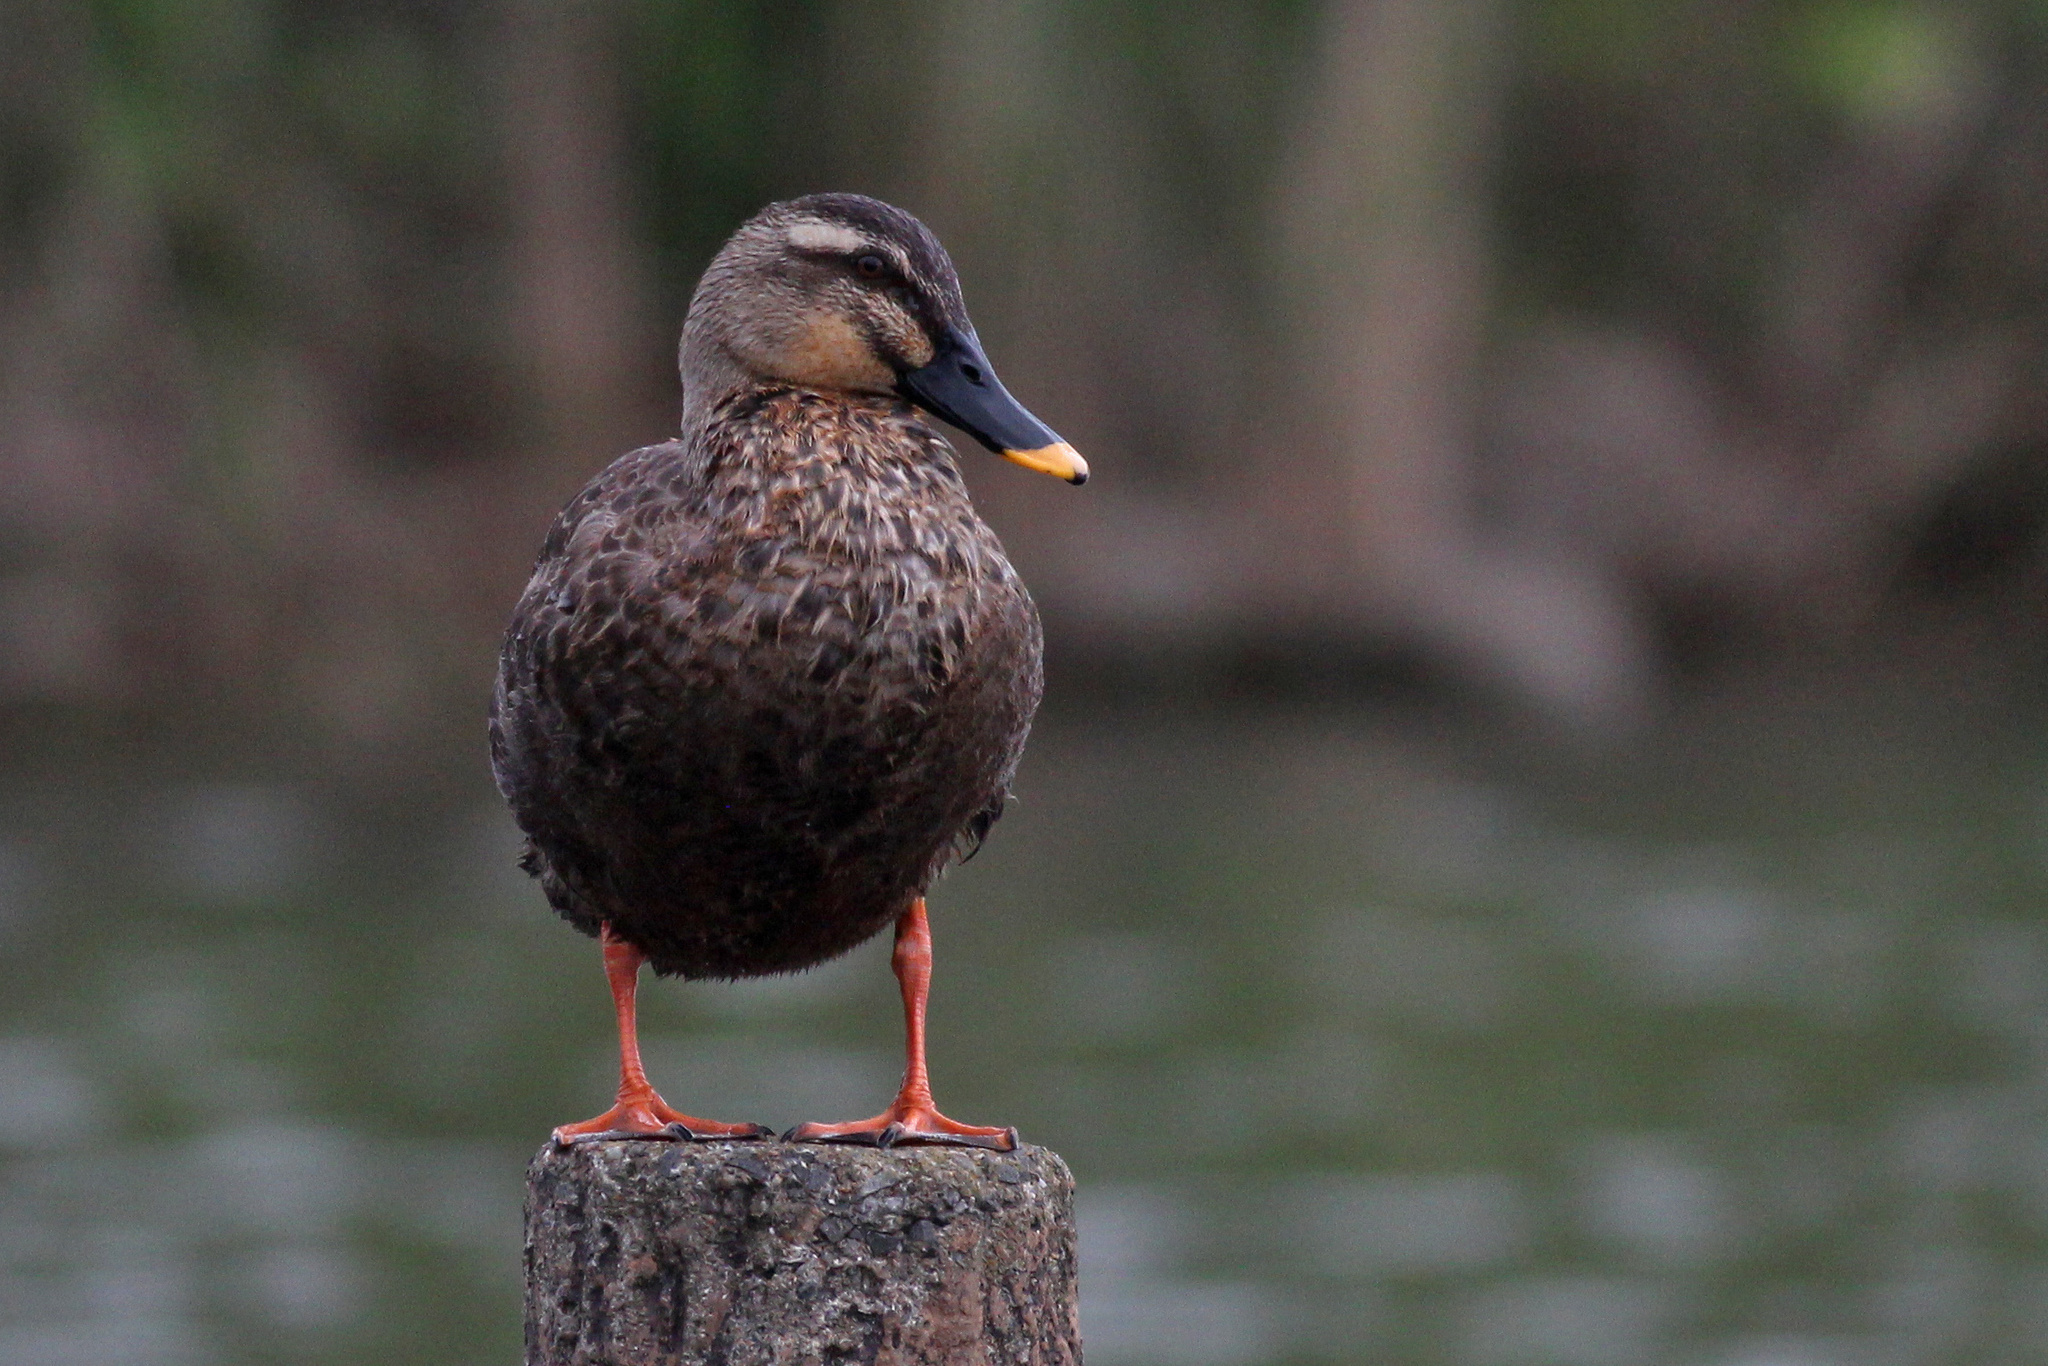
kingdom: Animalia
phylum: Chordata
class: Aves
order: Anseriformes
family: Anatidae
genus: Anas
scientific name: Anas zonorhyncha
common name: Eastern spot-billed duck
